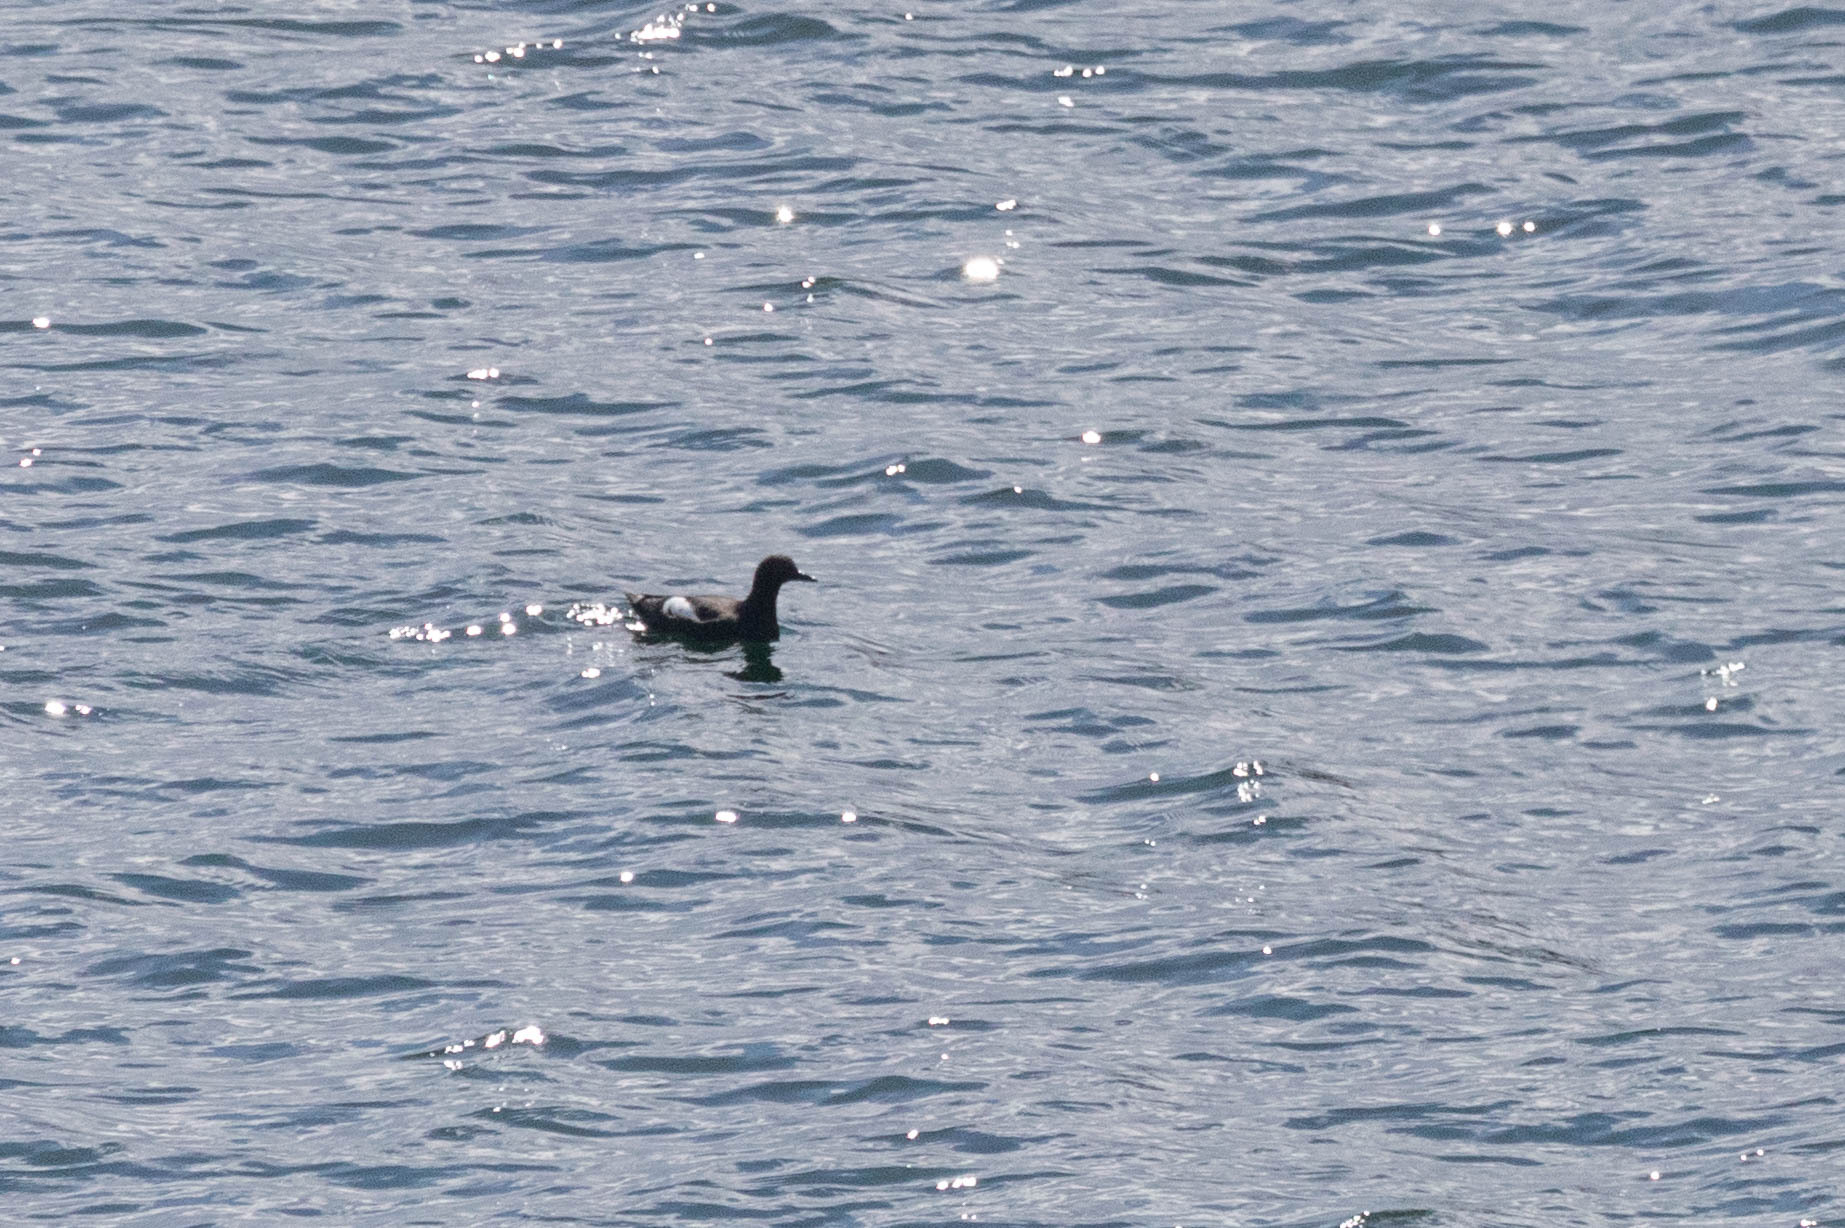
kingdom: Animalia
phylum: Chordata
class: Aves
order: Charadriiformes
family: Alcidae
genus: Cepphus
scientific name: Cepphus columba
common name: Pigeon guillemot
